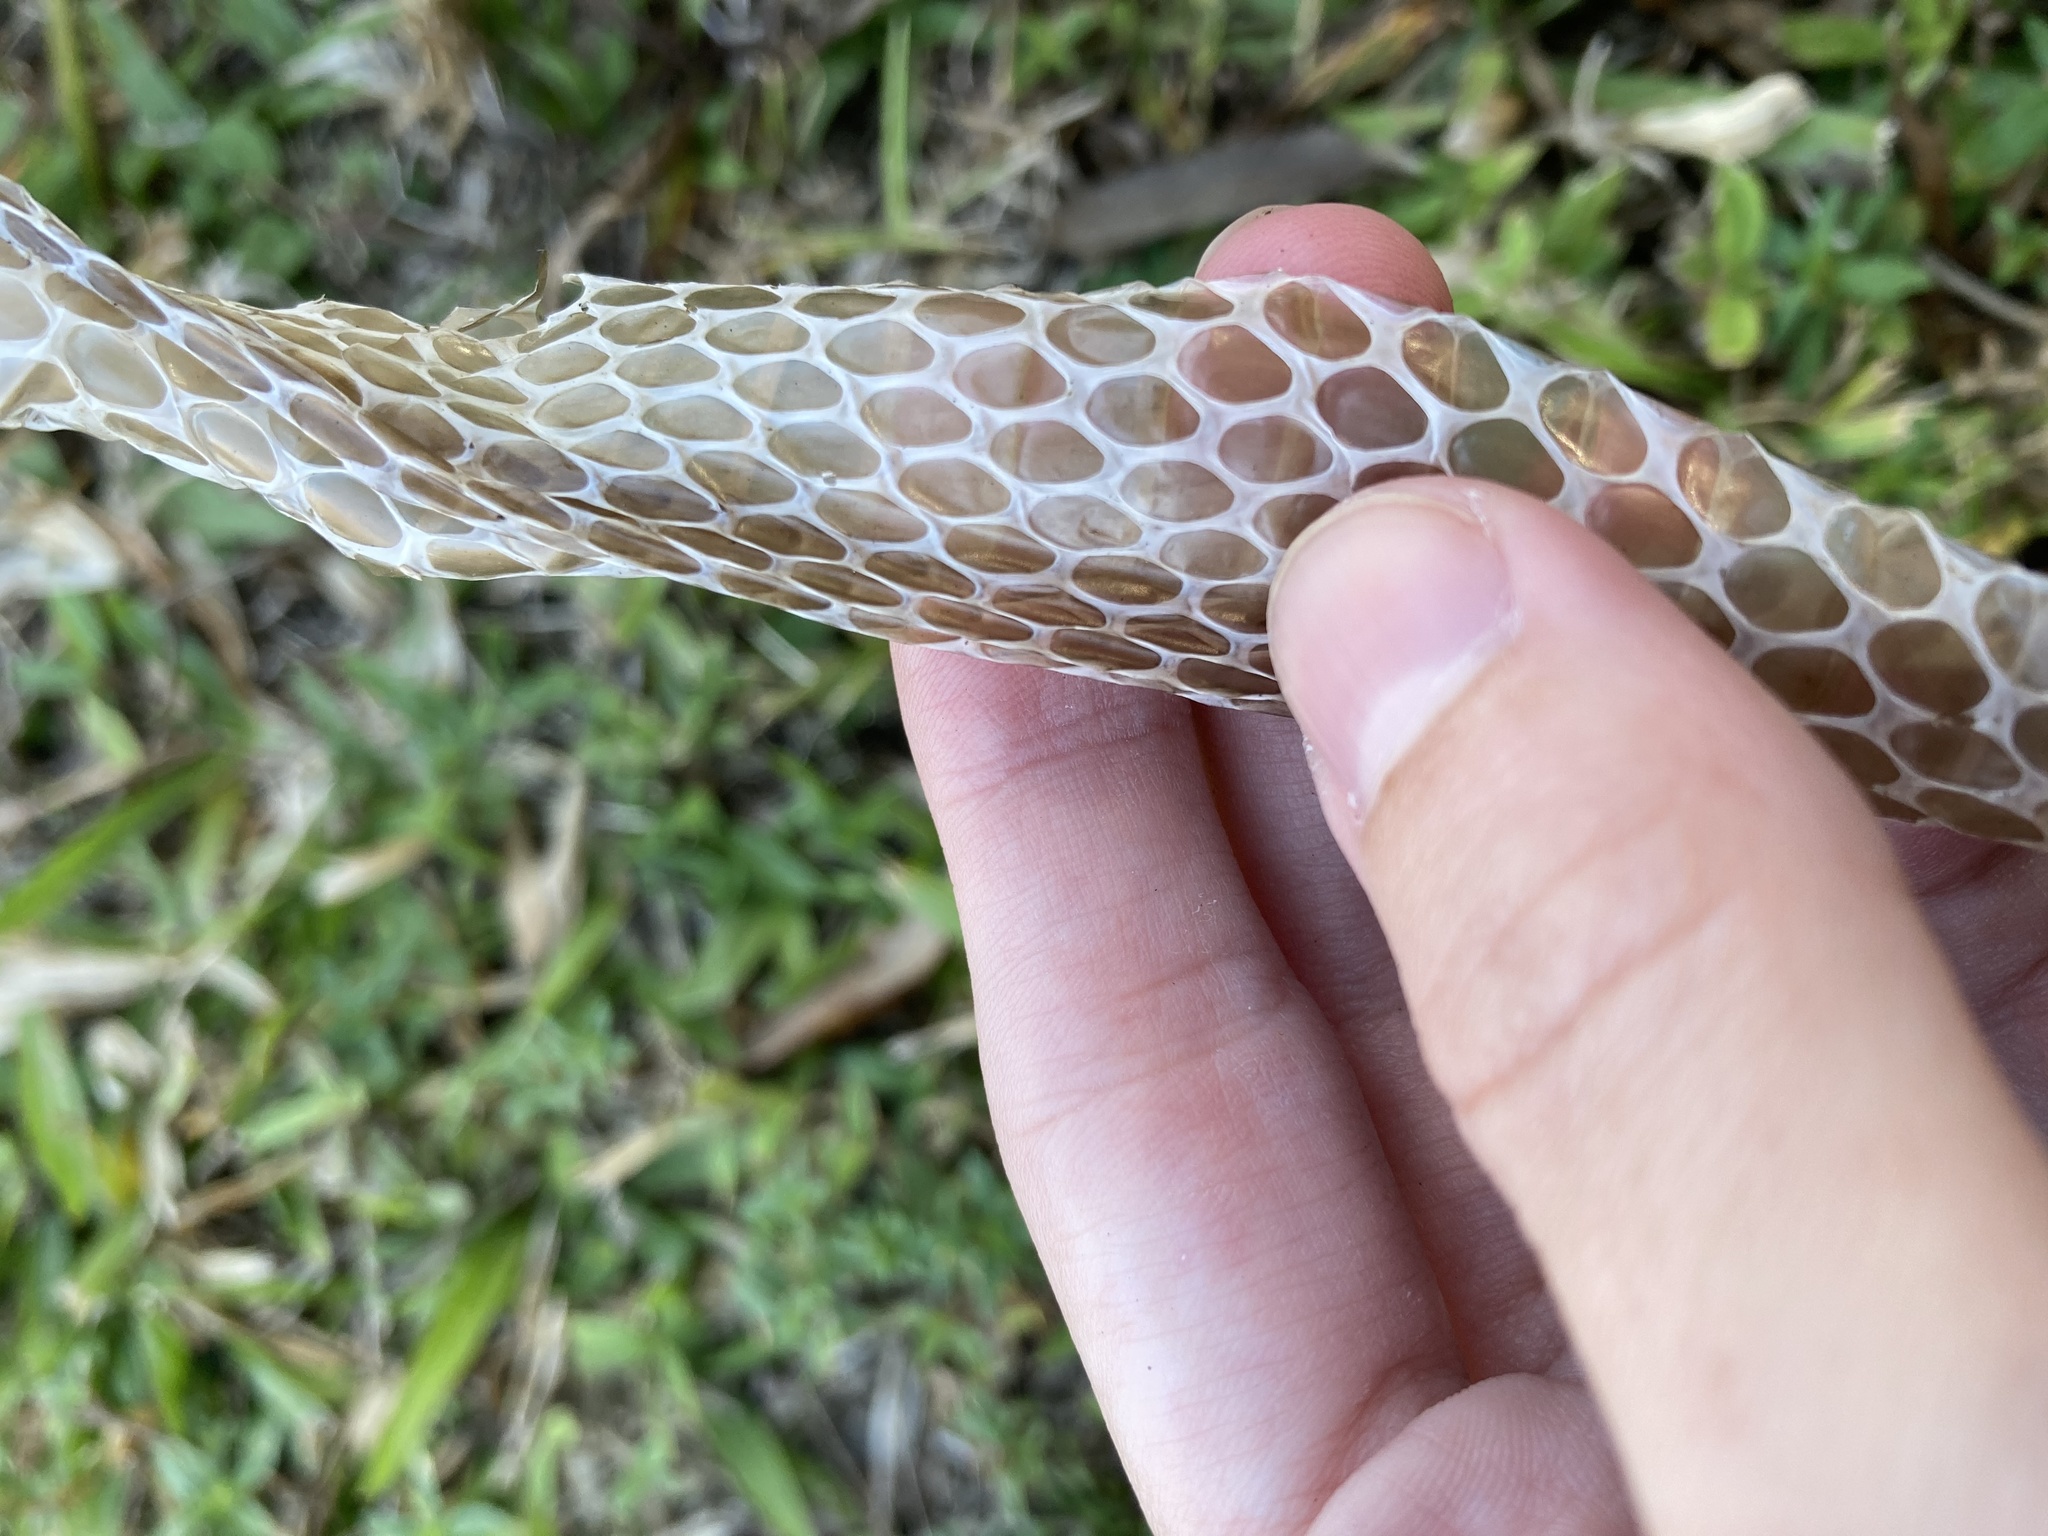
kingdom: Animalia
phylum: Chordata
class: Squamata
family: Colubridae
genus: Coluber
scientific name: Coluber constrictor
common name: Eastern racer
